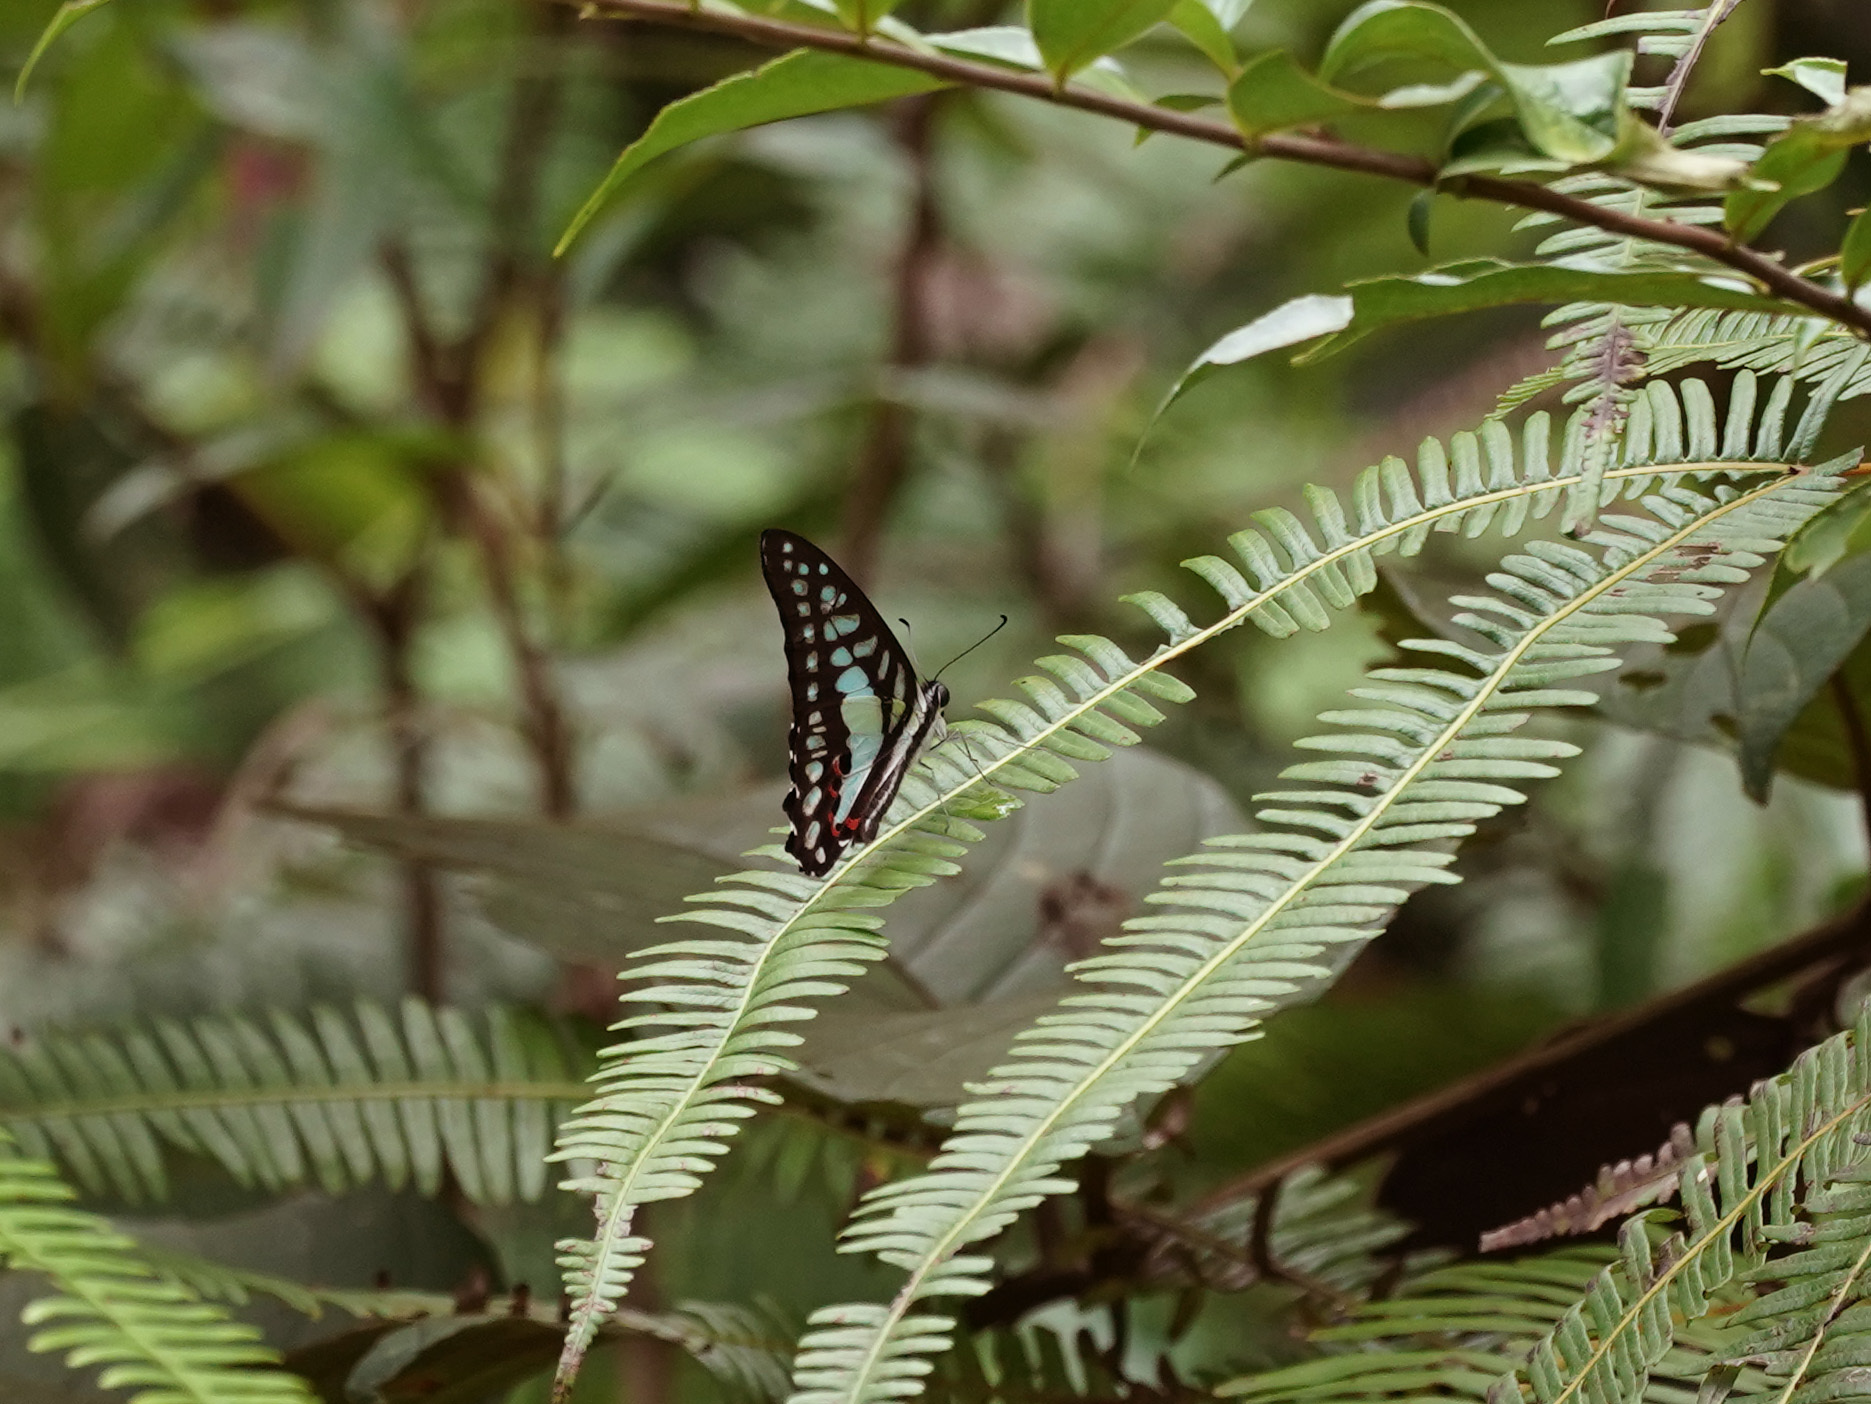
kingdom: Animalia
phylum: Arthropoda
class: Insecta
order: Lepidoptera
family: Papilionidae
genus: Graphium
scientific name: Graphium evemon
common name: Lesser jay
